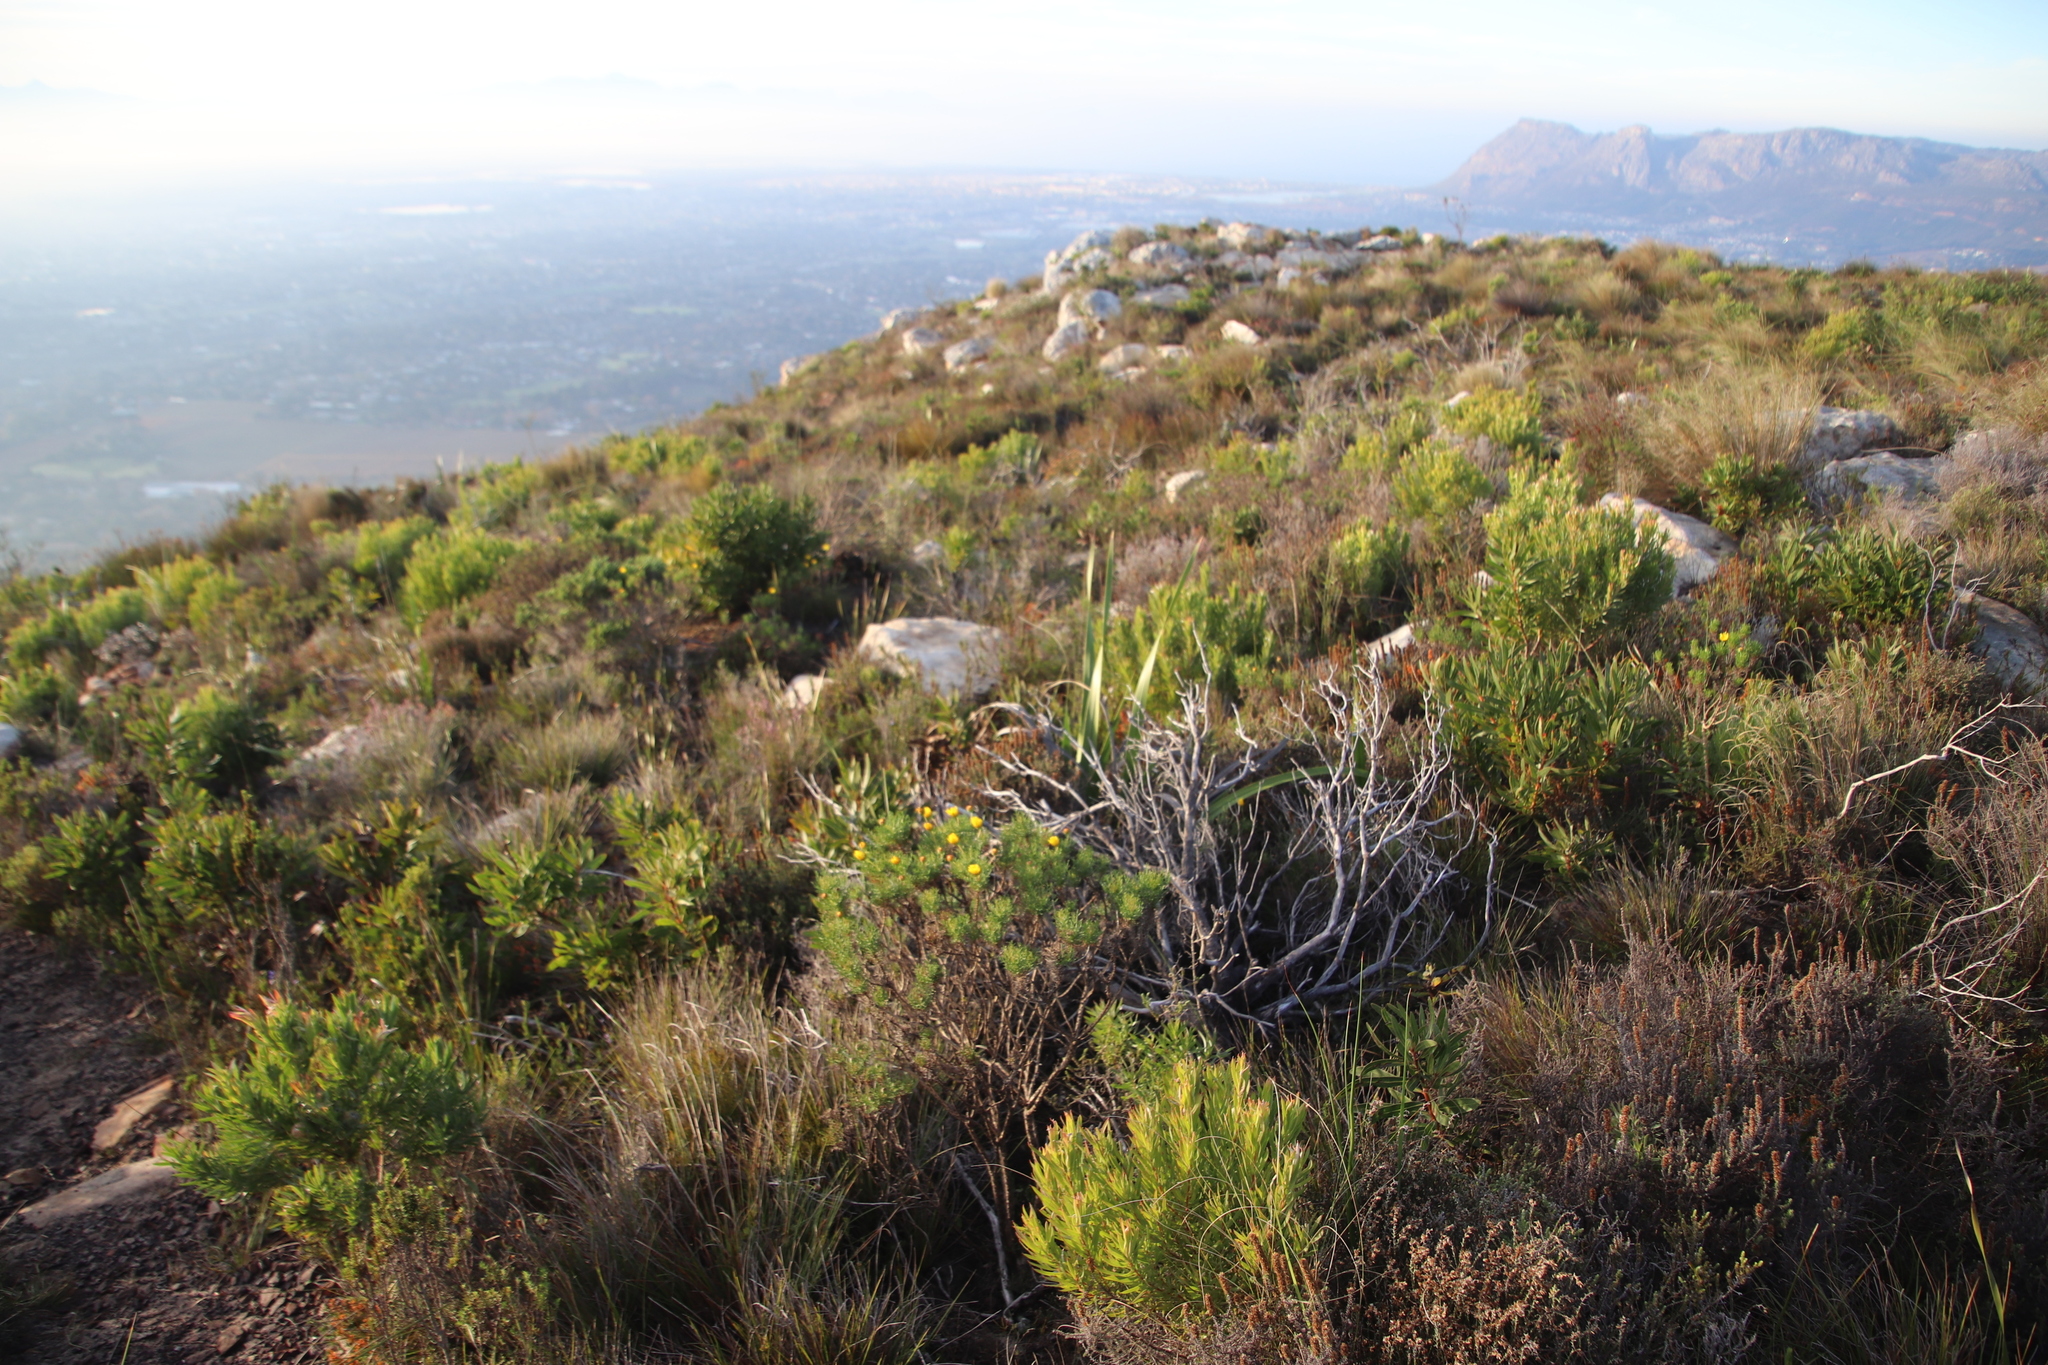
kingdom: Plantae
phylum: Tracheophyta
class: Magnoliopsida
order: Proteales
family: Proteaceae
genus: Leucadendron
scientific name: Leucadendron xanthoconus
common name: Sickle-leaf conebush
